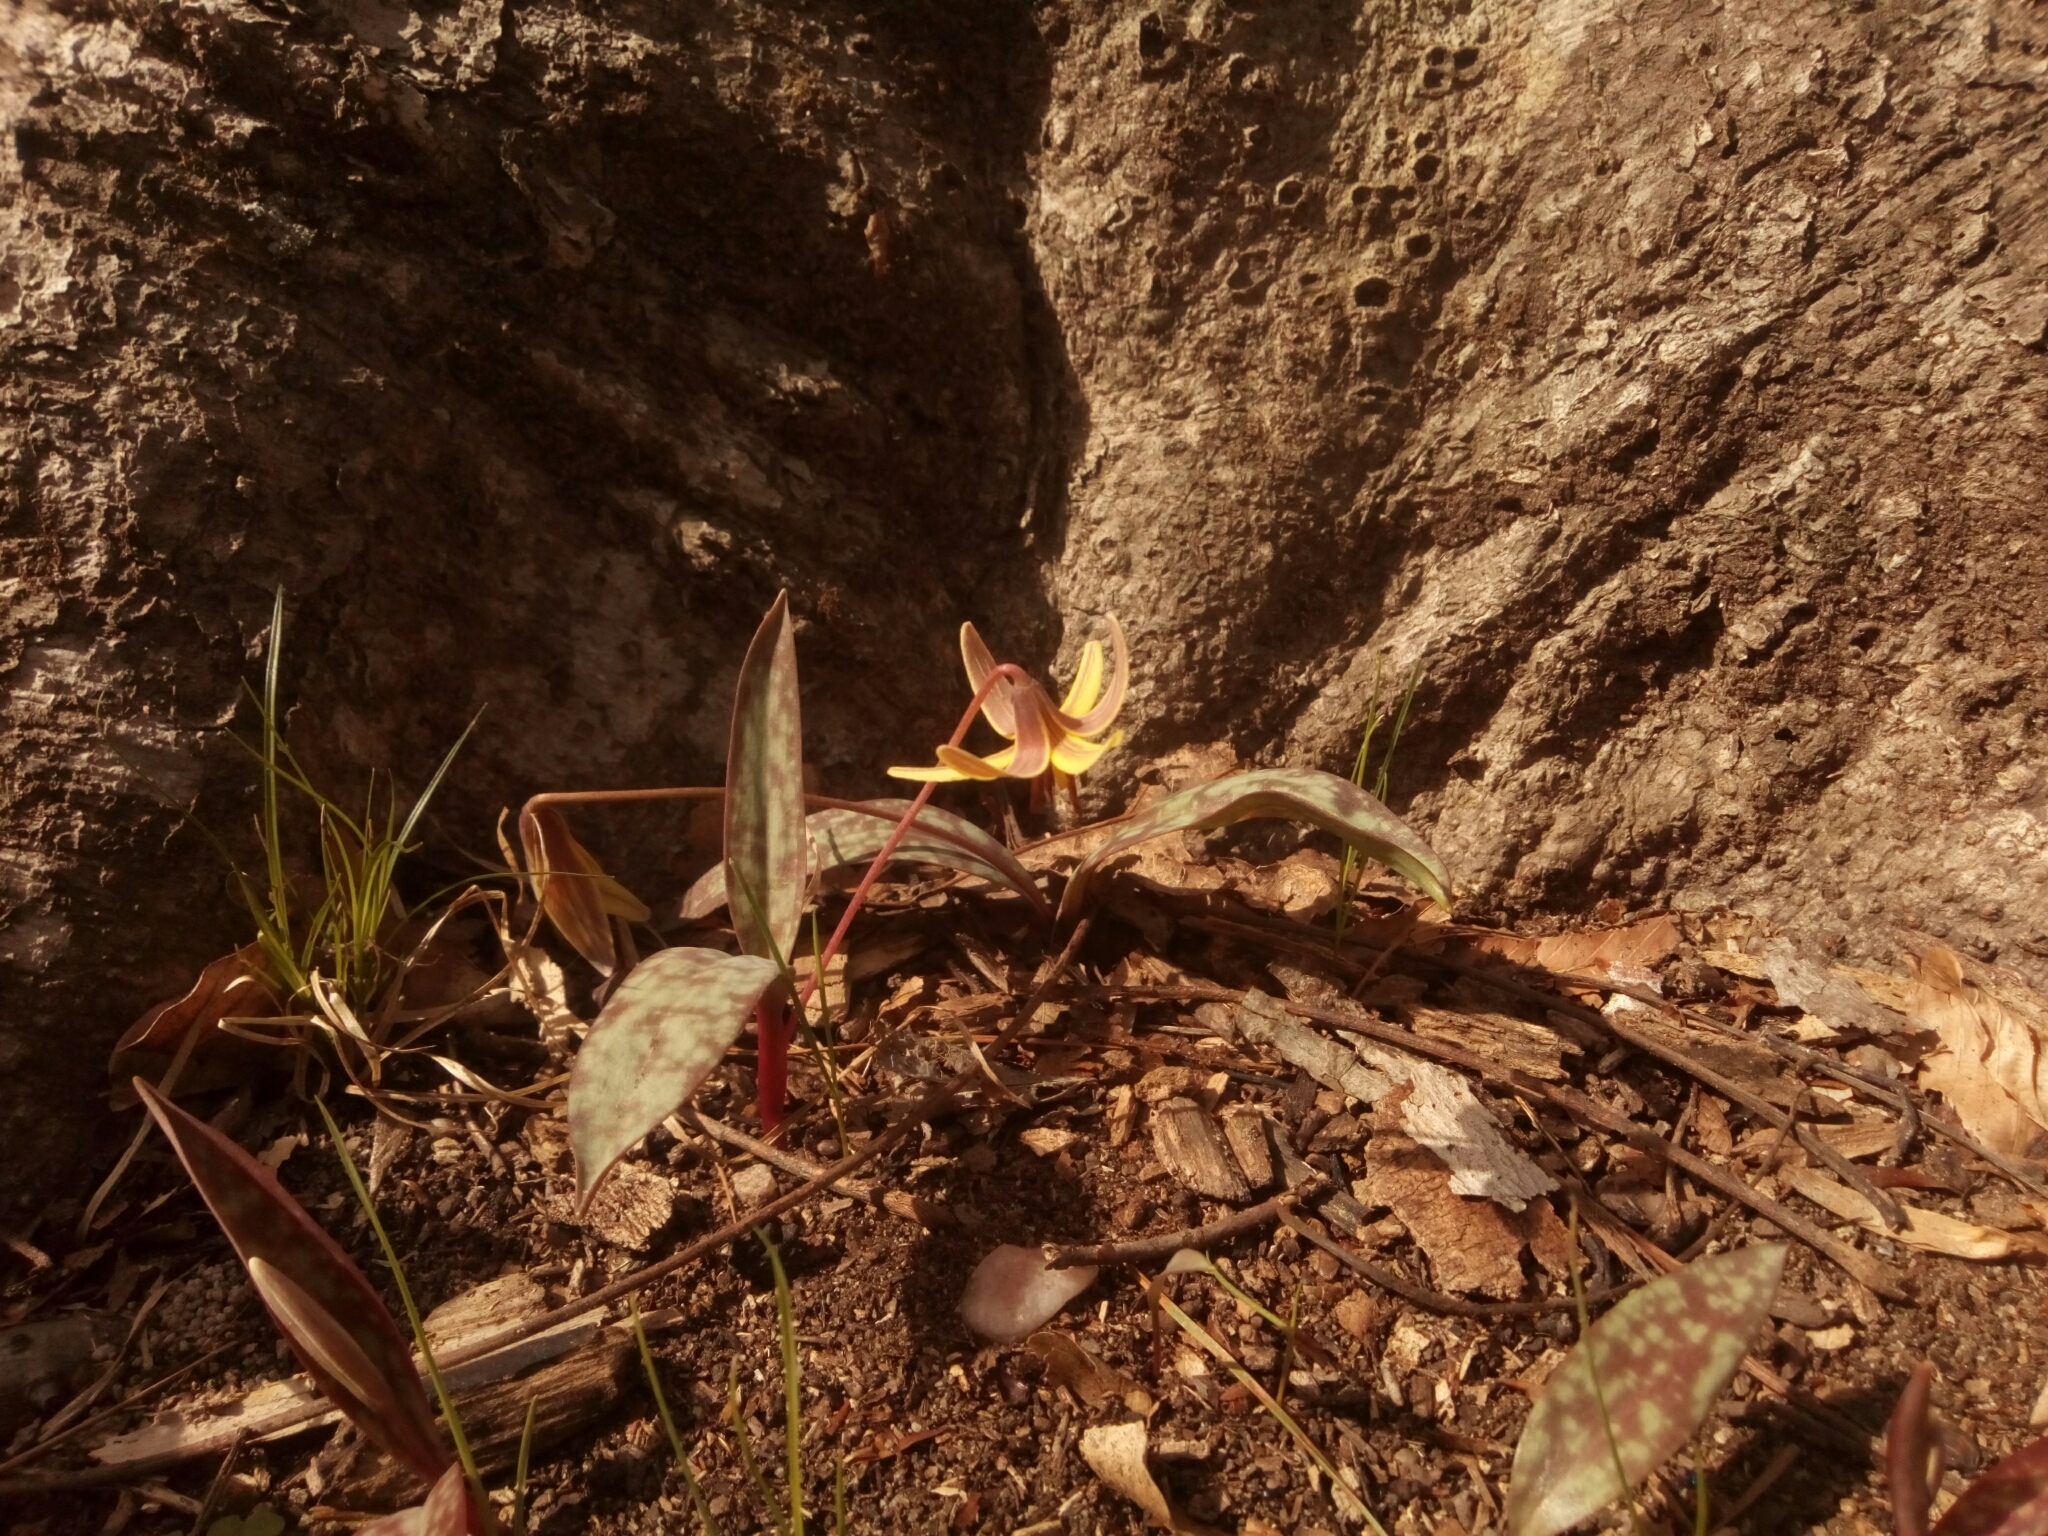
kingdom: Plantae
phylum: Tracheophyta
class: Liliopsida
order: Liliales
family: Liliaceae
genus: Erythronium
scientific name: Erythronium americanum
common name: Yellow adder's-tongue
